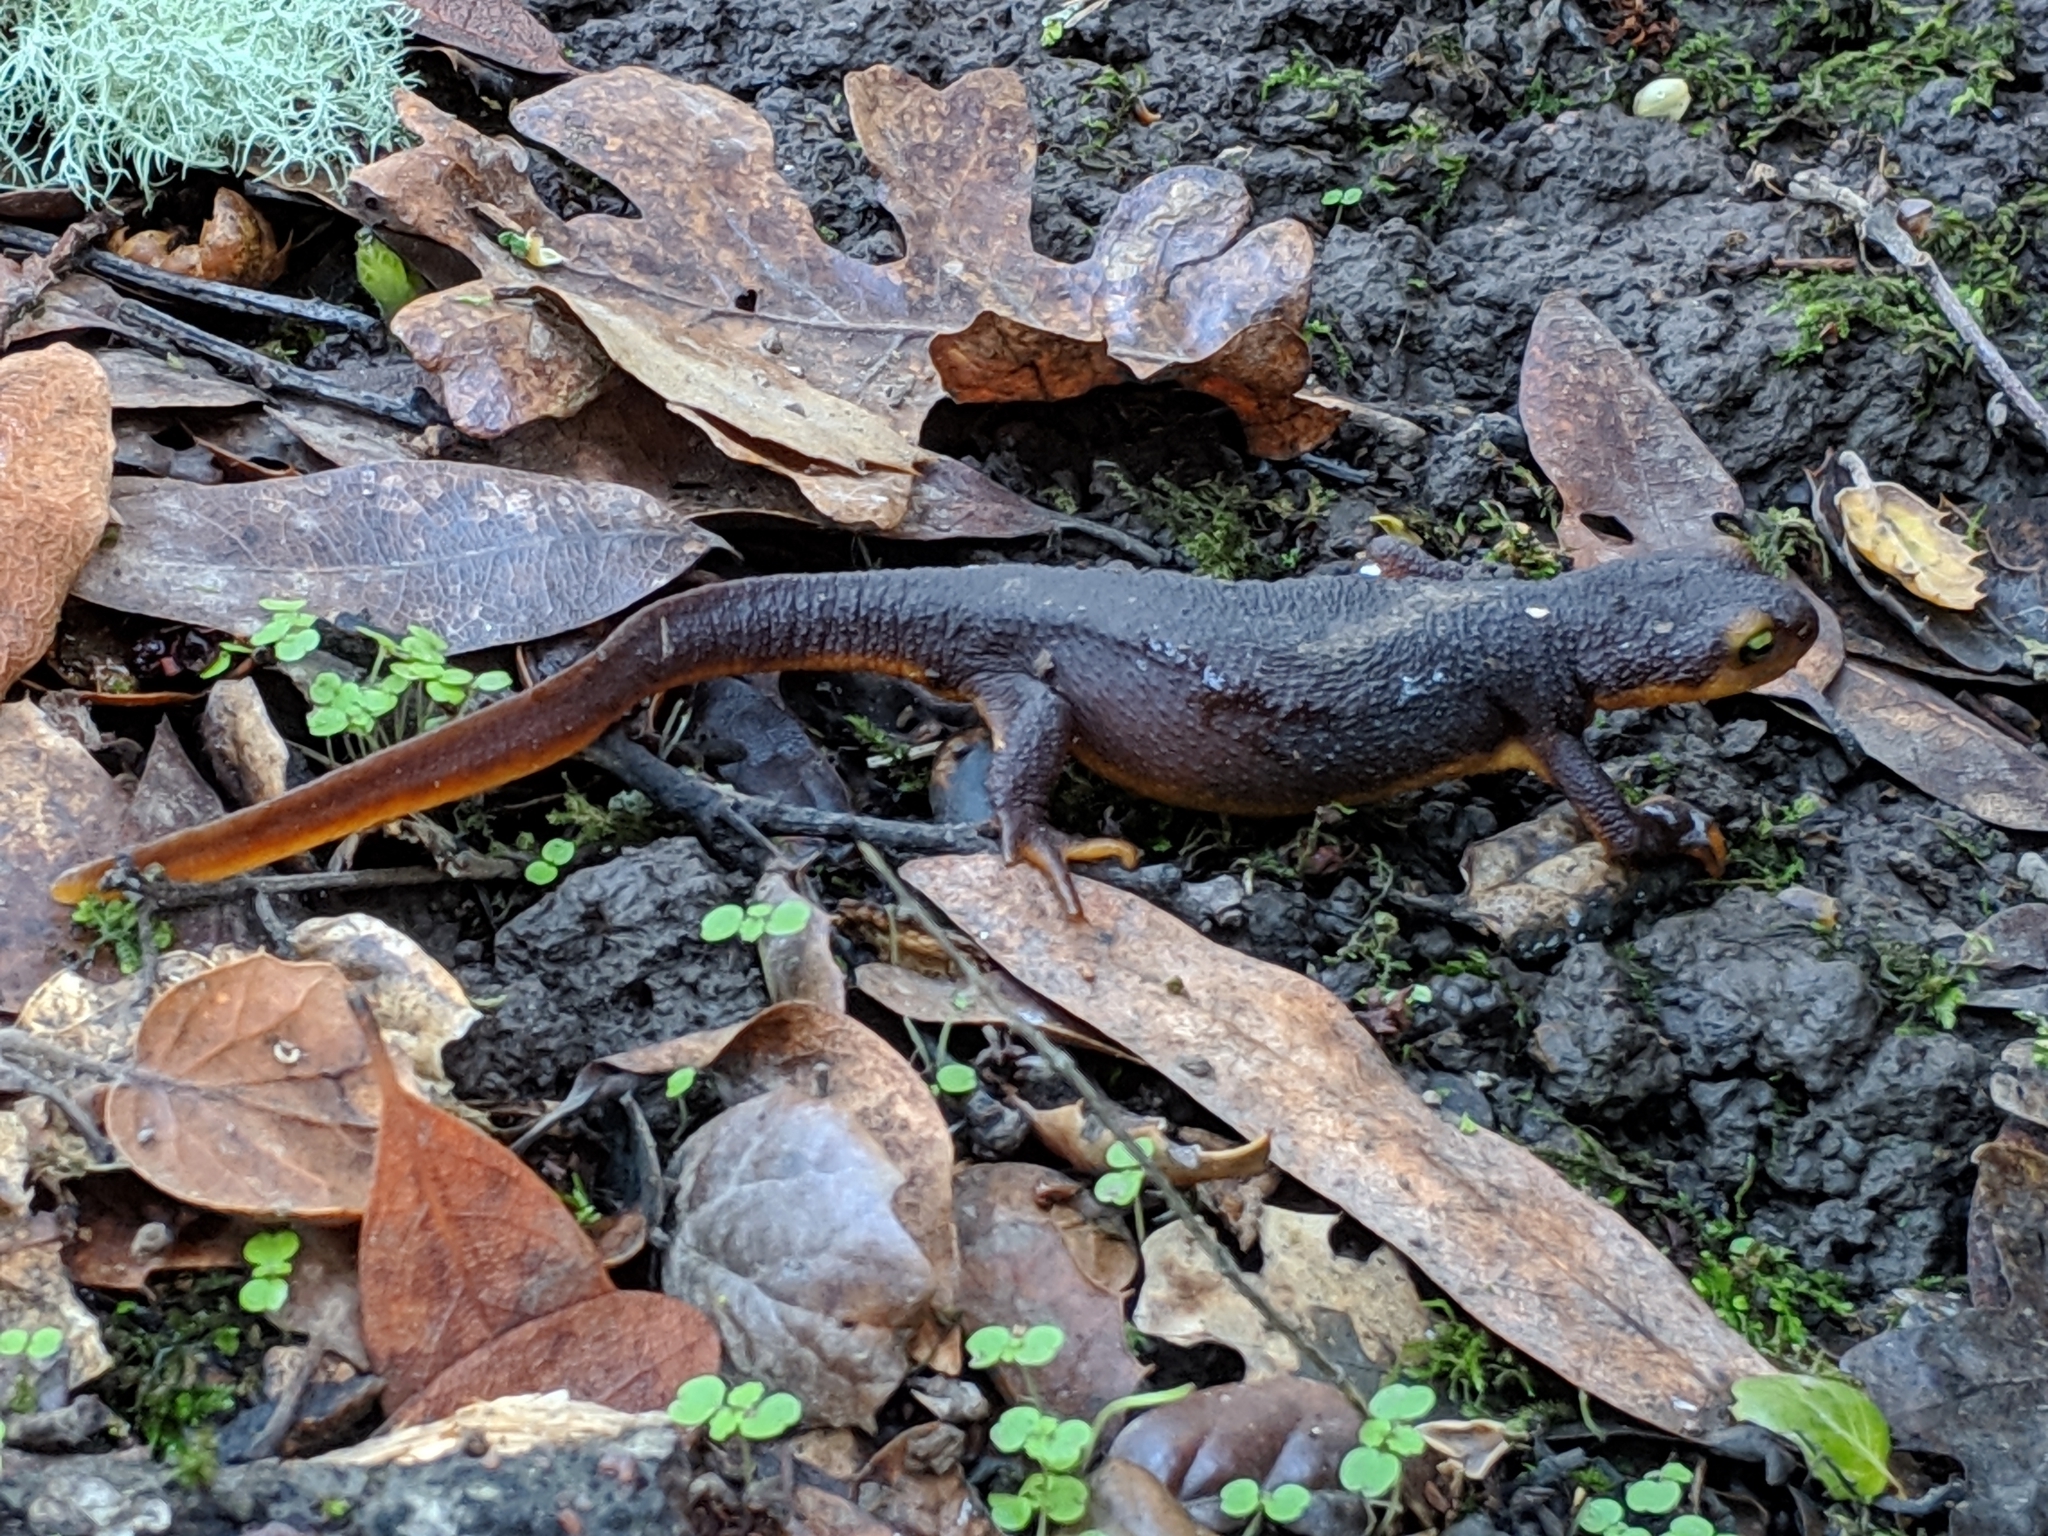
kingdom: Animalia
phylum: Chordata
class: Amphibia
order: Caudata
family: Salamandridae
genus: Taricha
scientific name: Taricha torosa
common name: California newt
